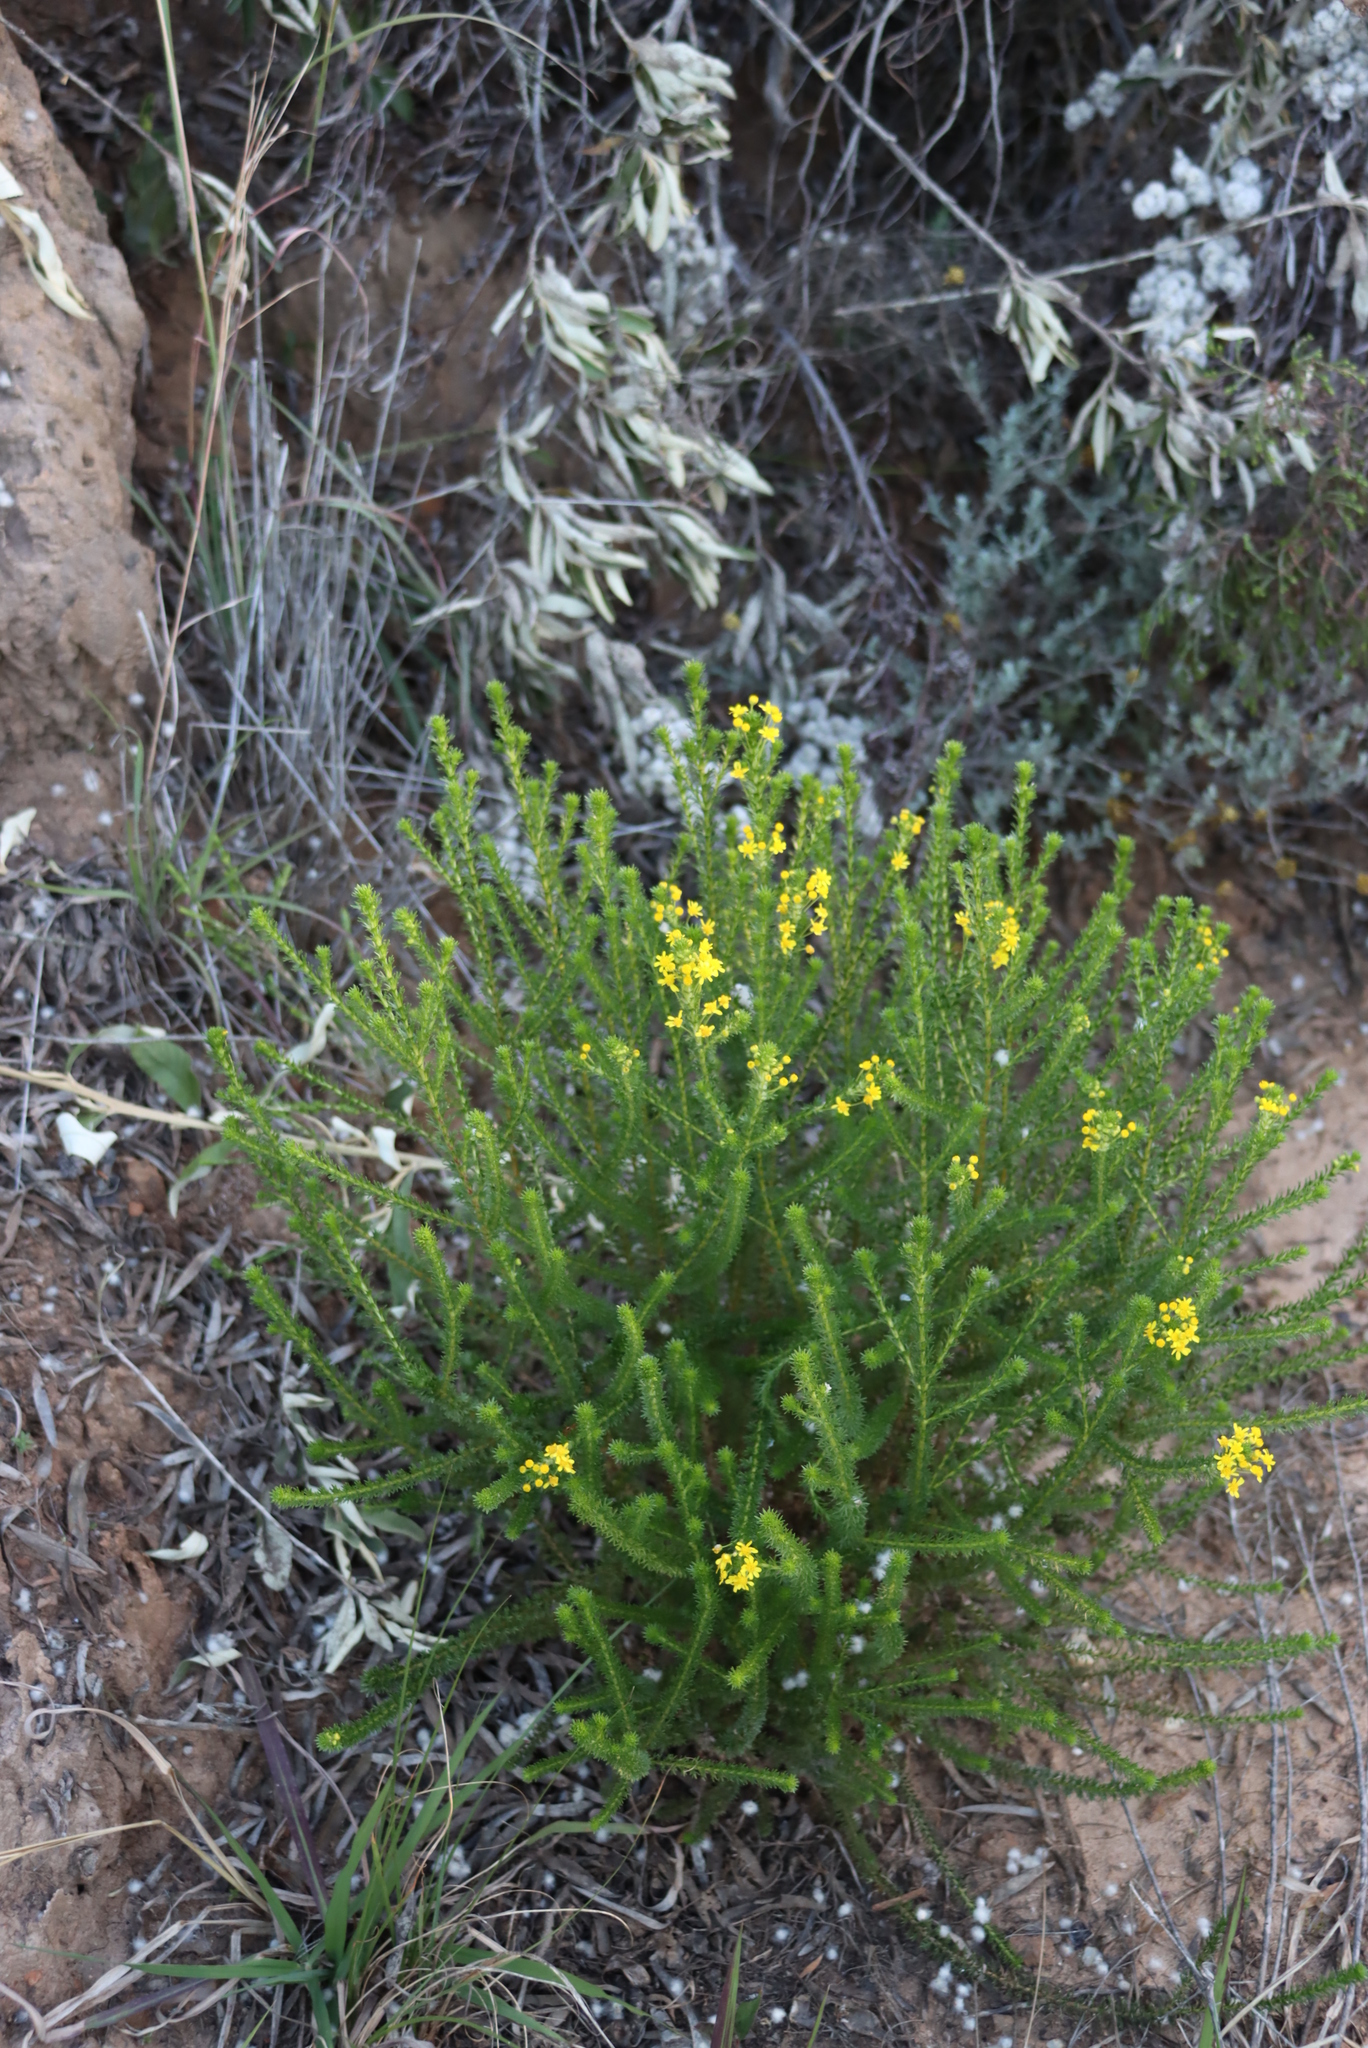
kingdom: Plantae
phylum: Tracheophyta
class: Magnoliopsida
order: Asterales
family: Asteraceae
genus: Euryops
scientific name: Euryops virgineus
